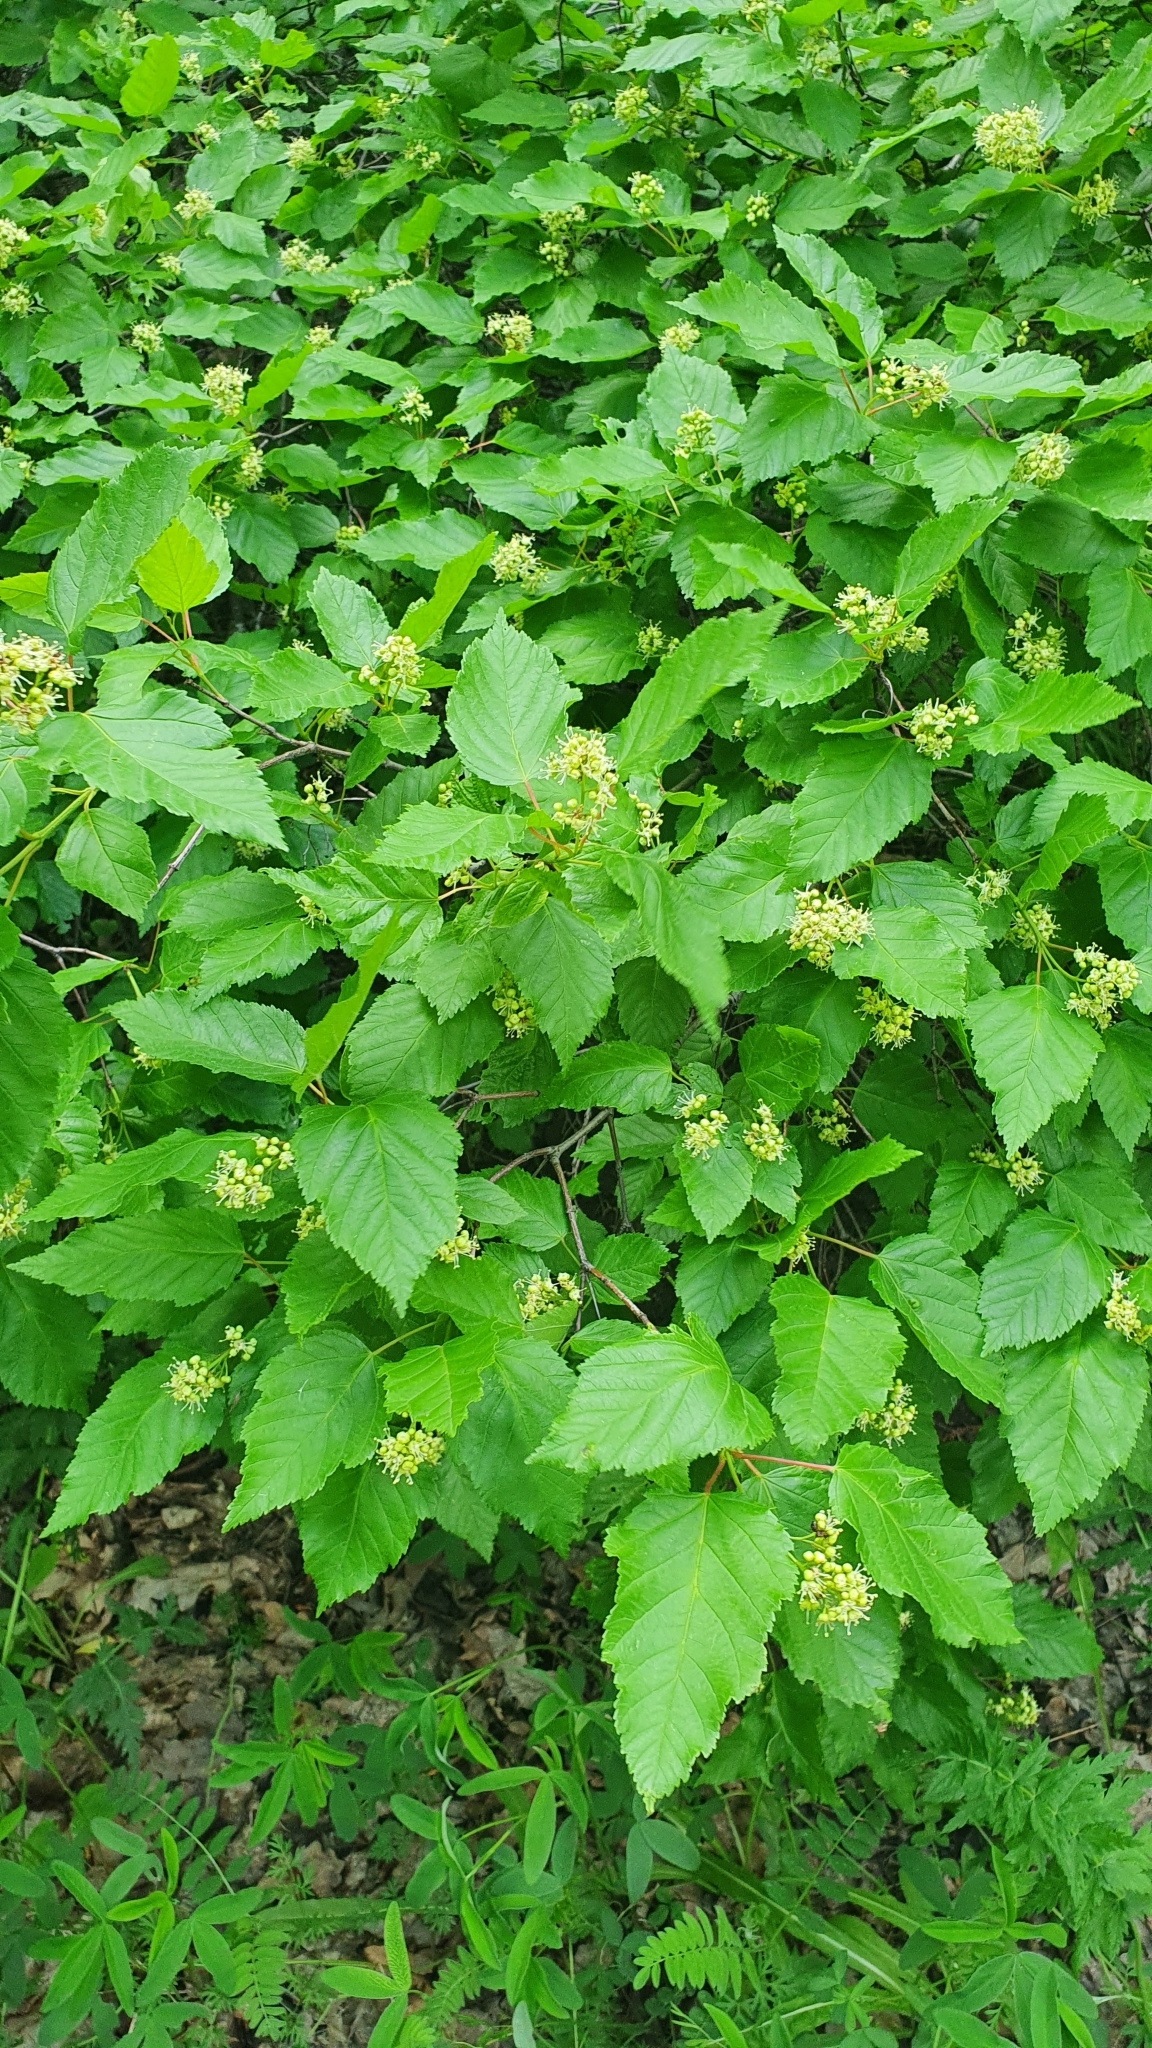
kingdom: Plantae
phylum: Tracheophyta
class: Magnoliopsida
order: Sapindales
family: Sapindaceae
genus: Acer
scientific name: Acer tataricum
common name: Tartar maple
